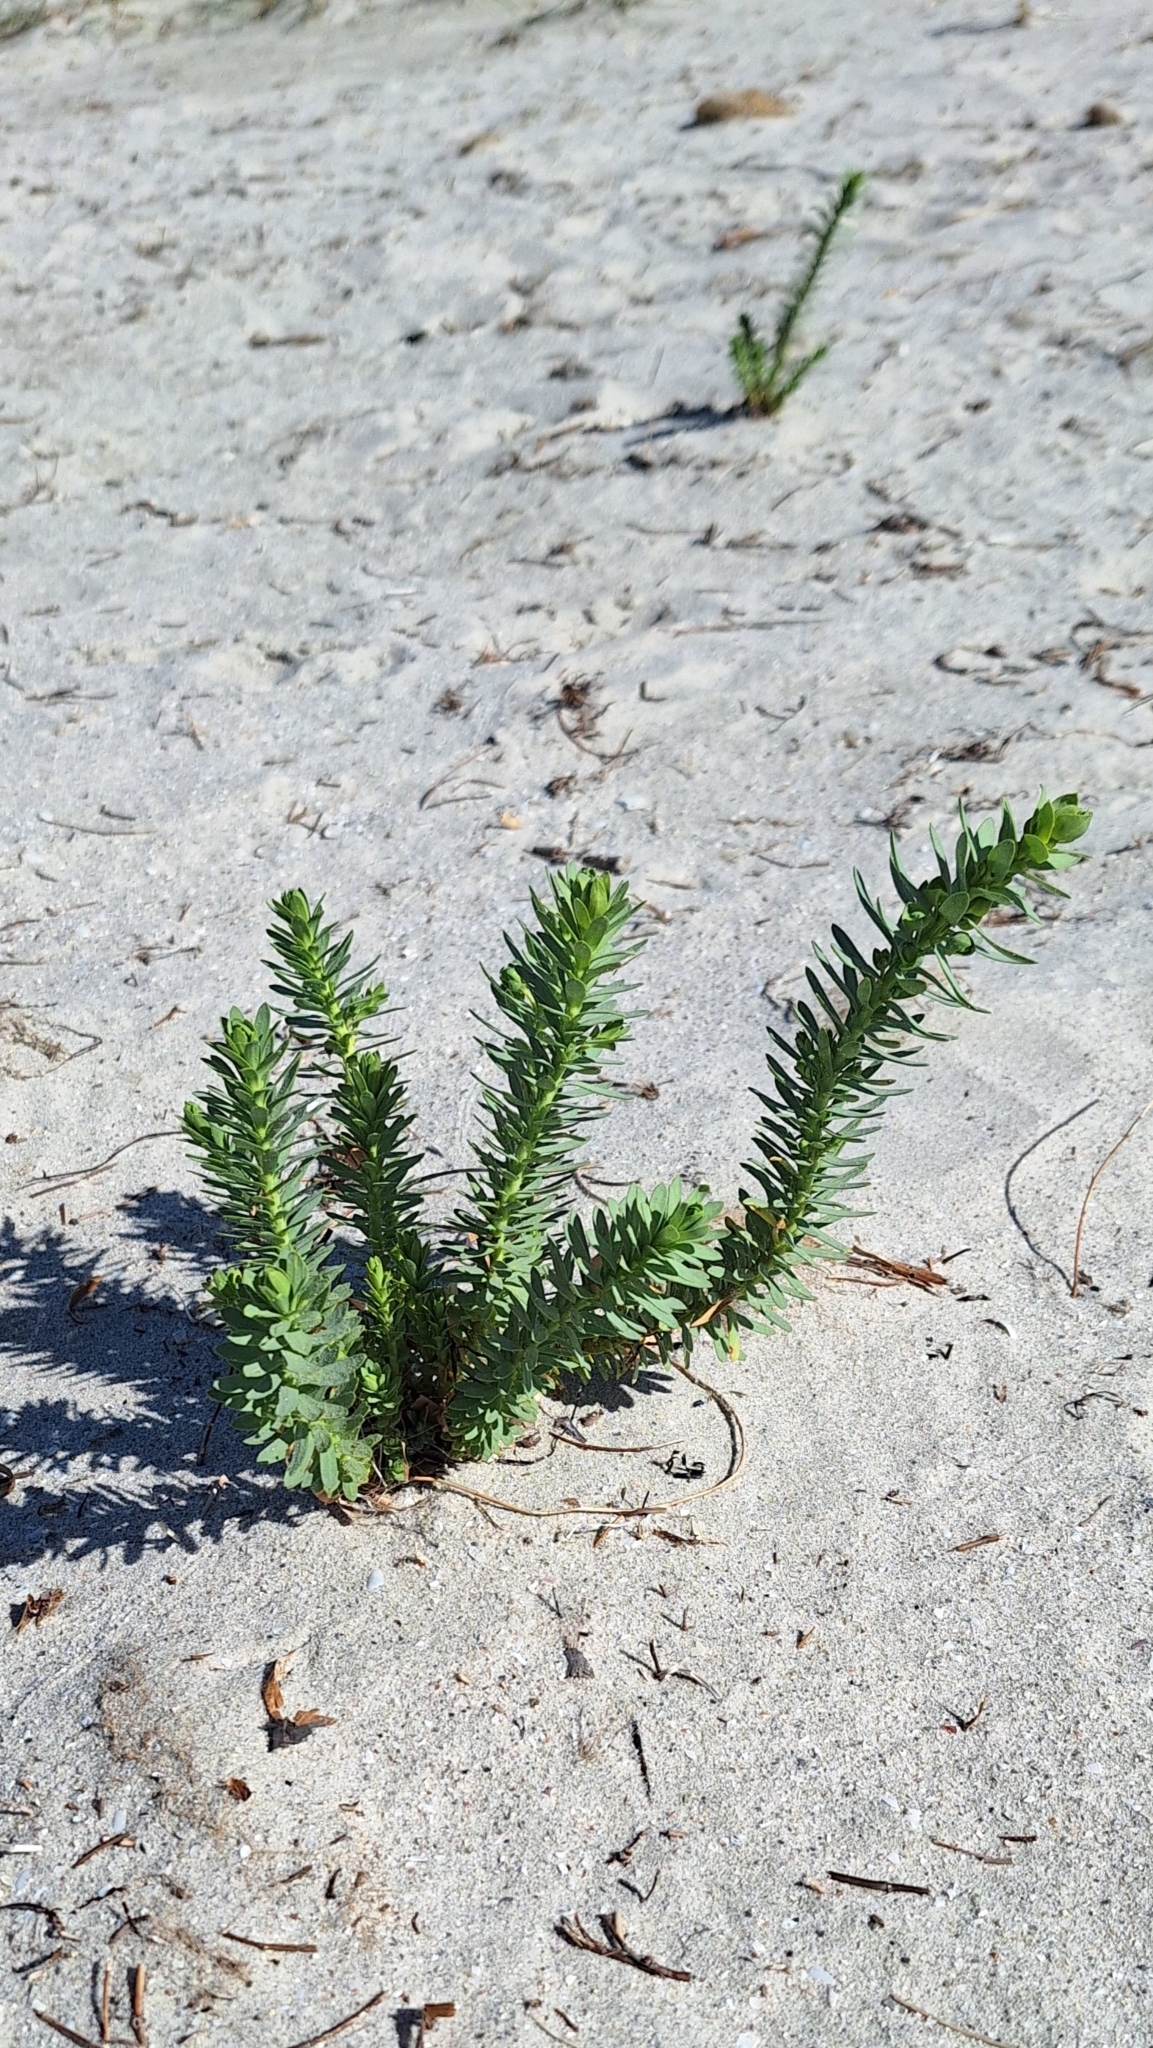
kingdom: Plantae
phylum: Tracheophyta
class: Magnoliopsida
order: Malpighiales
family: Euphorbiaceae
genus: Euphorbia
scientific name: Euphorbia paralias
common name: Sea spurge
